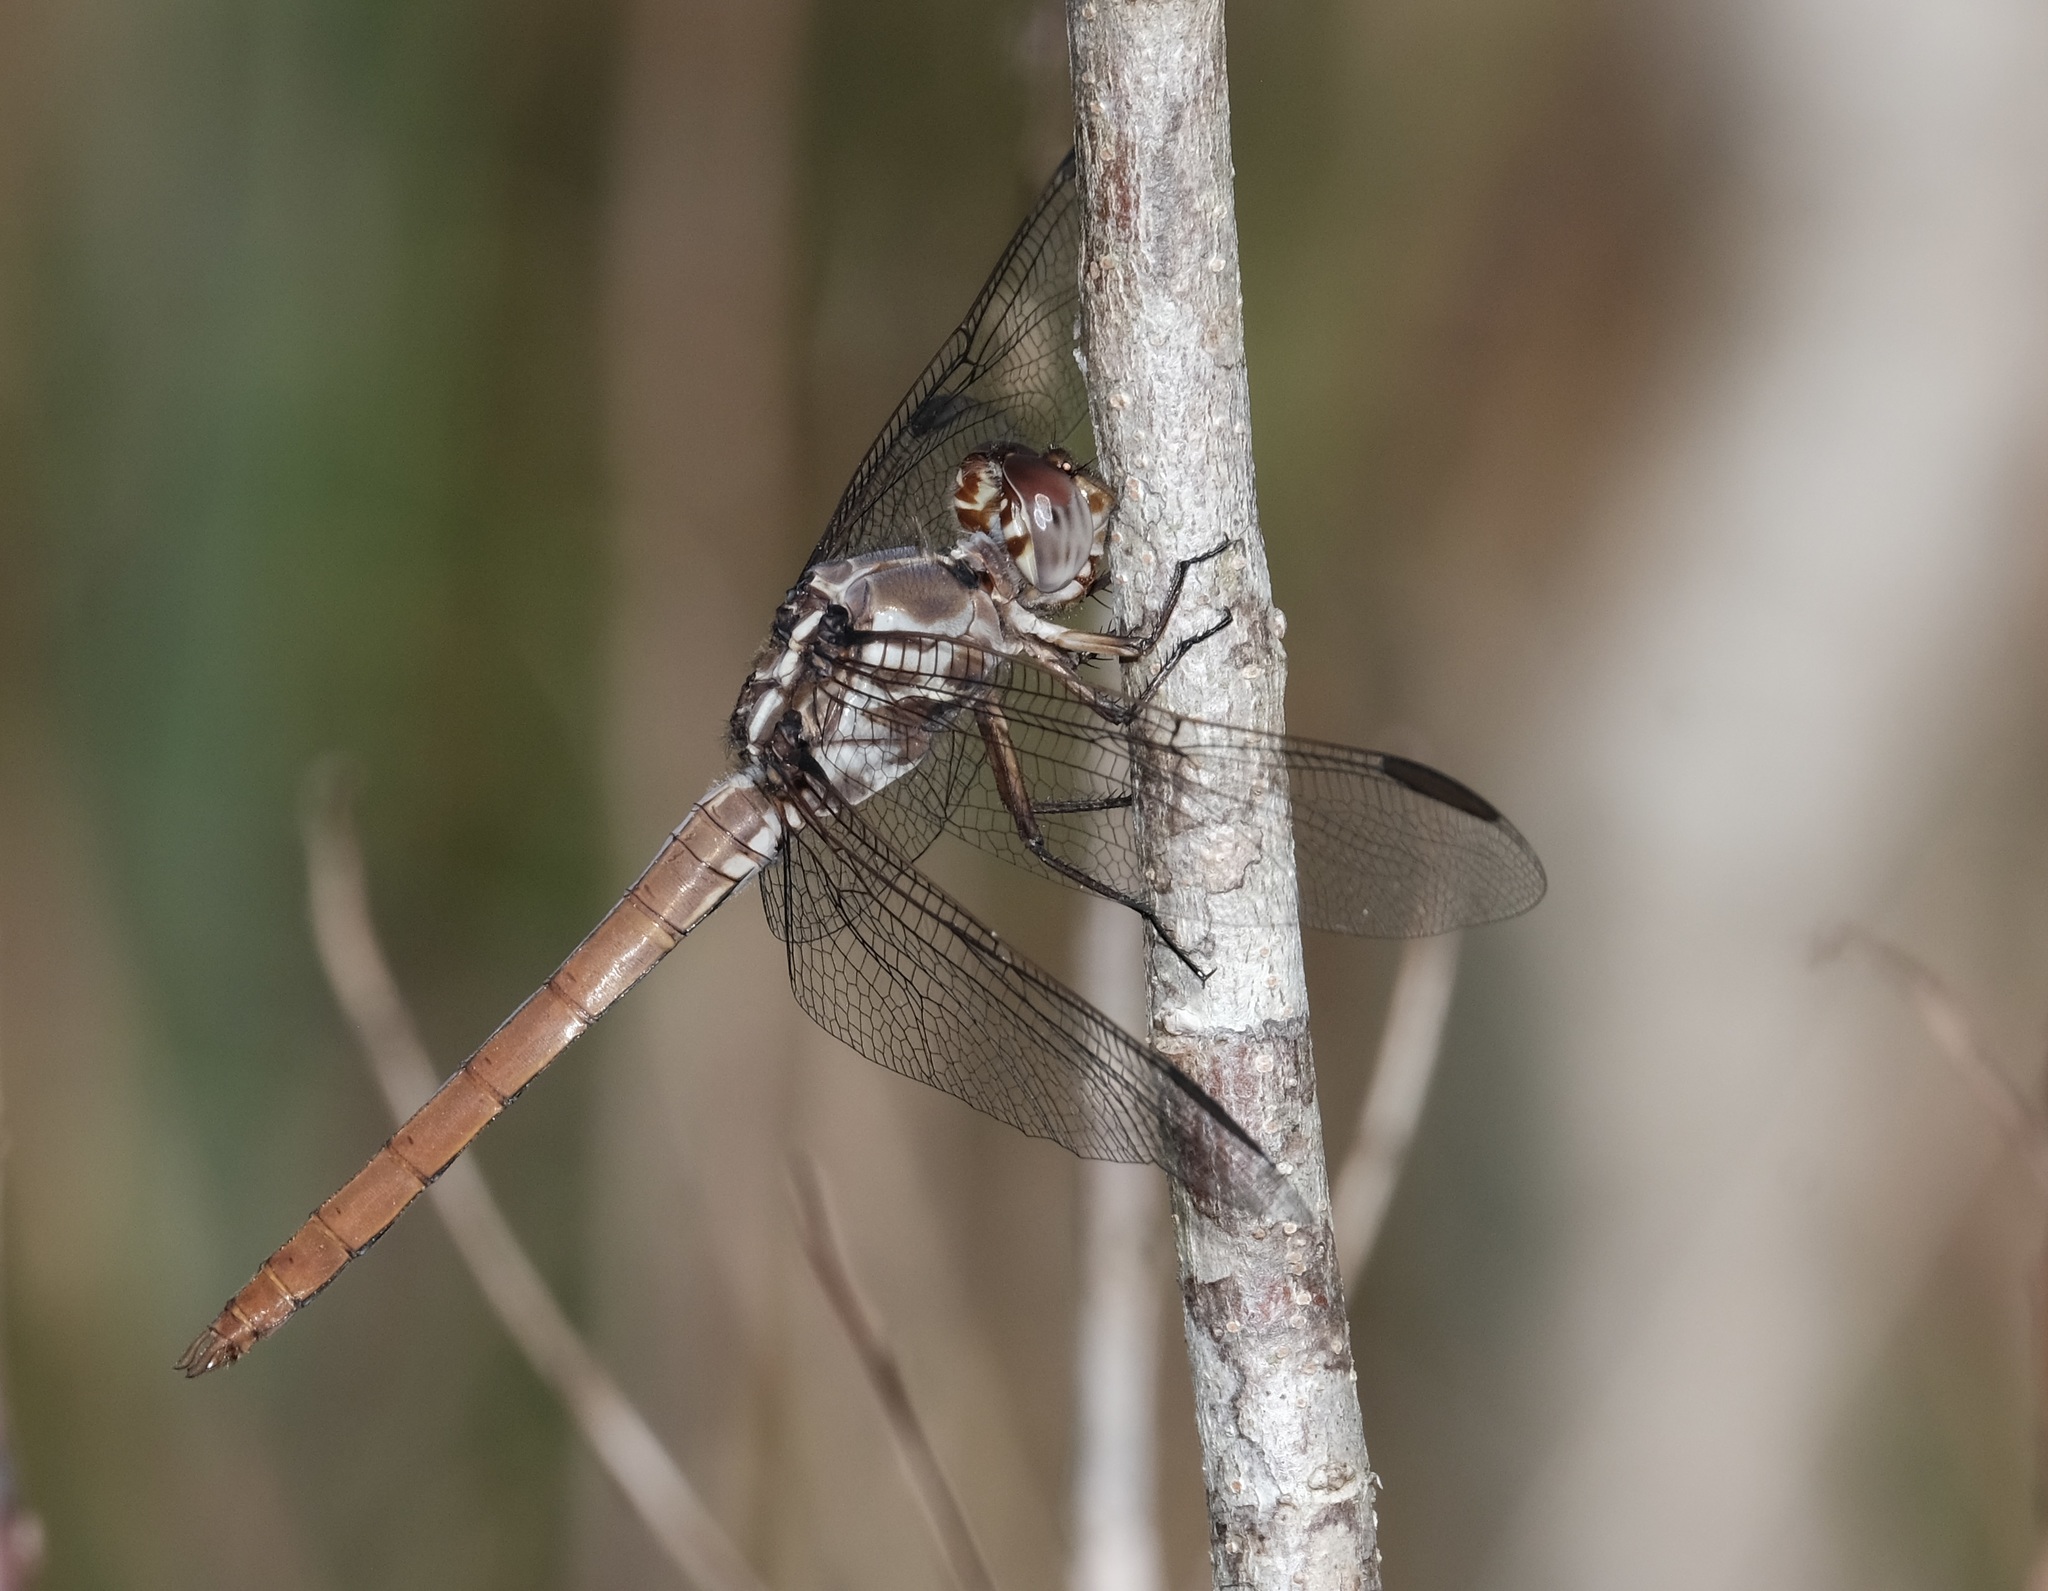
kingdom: Animalia
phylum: Arthropoda
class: Insecta
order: Odonata
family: Libellulidae
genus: Orthemis
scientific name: Orthemis ferruginea
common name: Roseate skimmer
